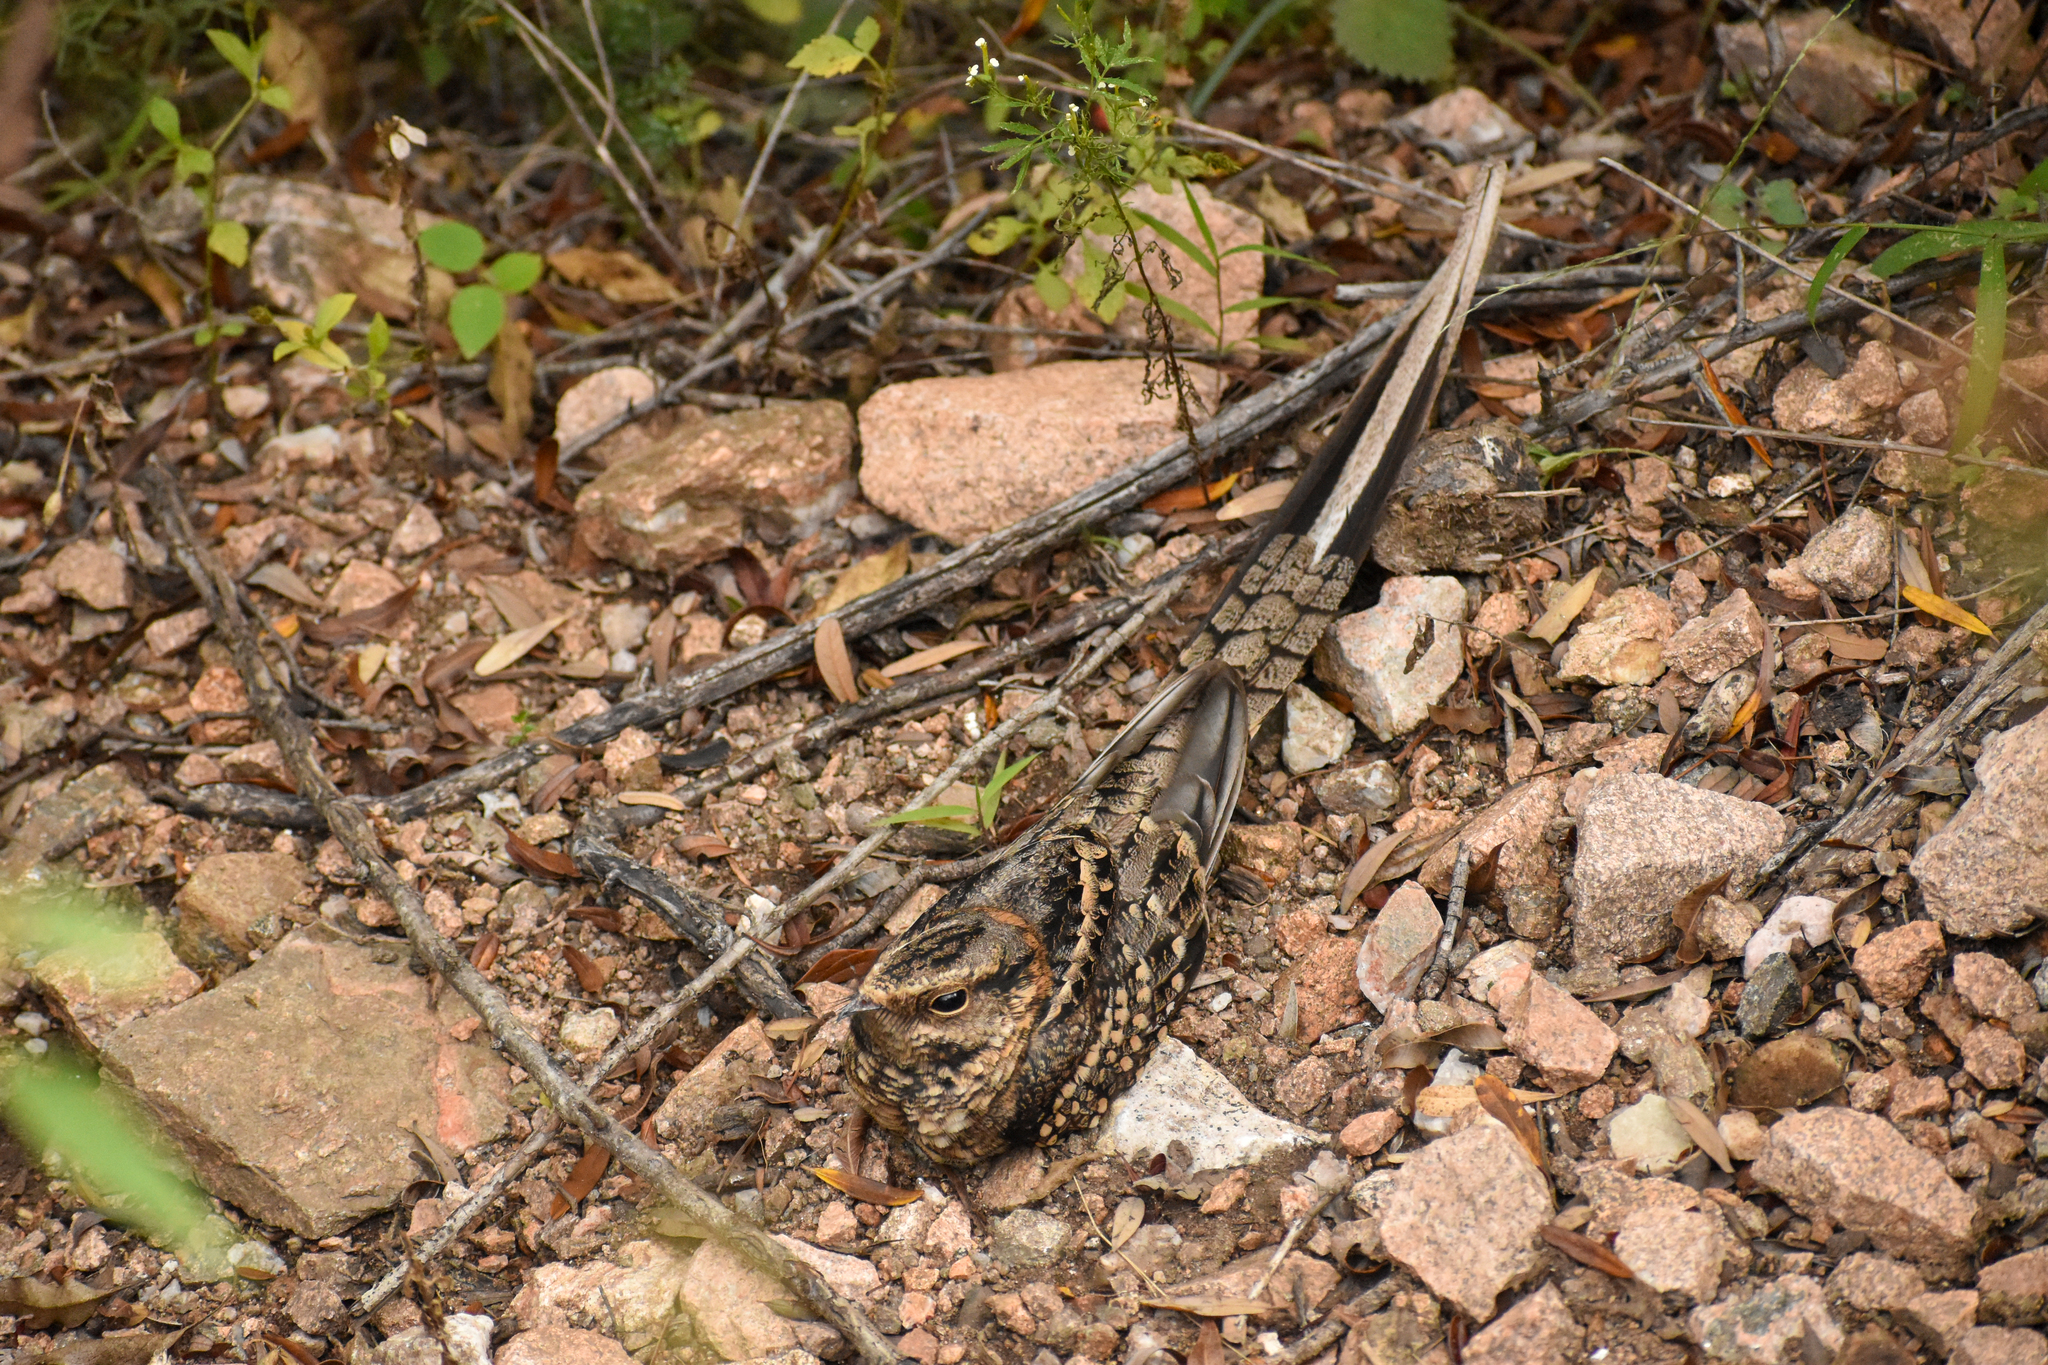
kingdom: Animalia
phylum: Chordata
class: Aves
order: Caprimulgiformes
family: Caprimulgidae
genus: Hydropsalis
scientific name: Hydropsalis torquata
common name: Scissor-tailed nightjar
